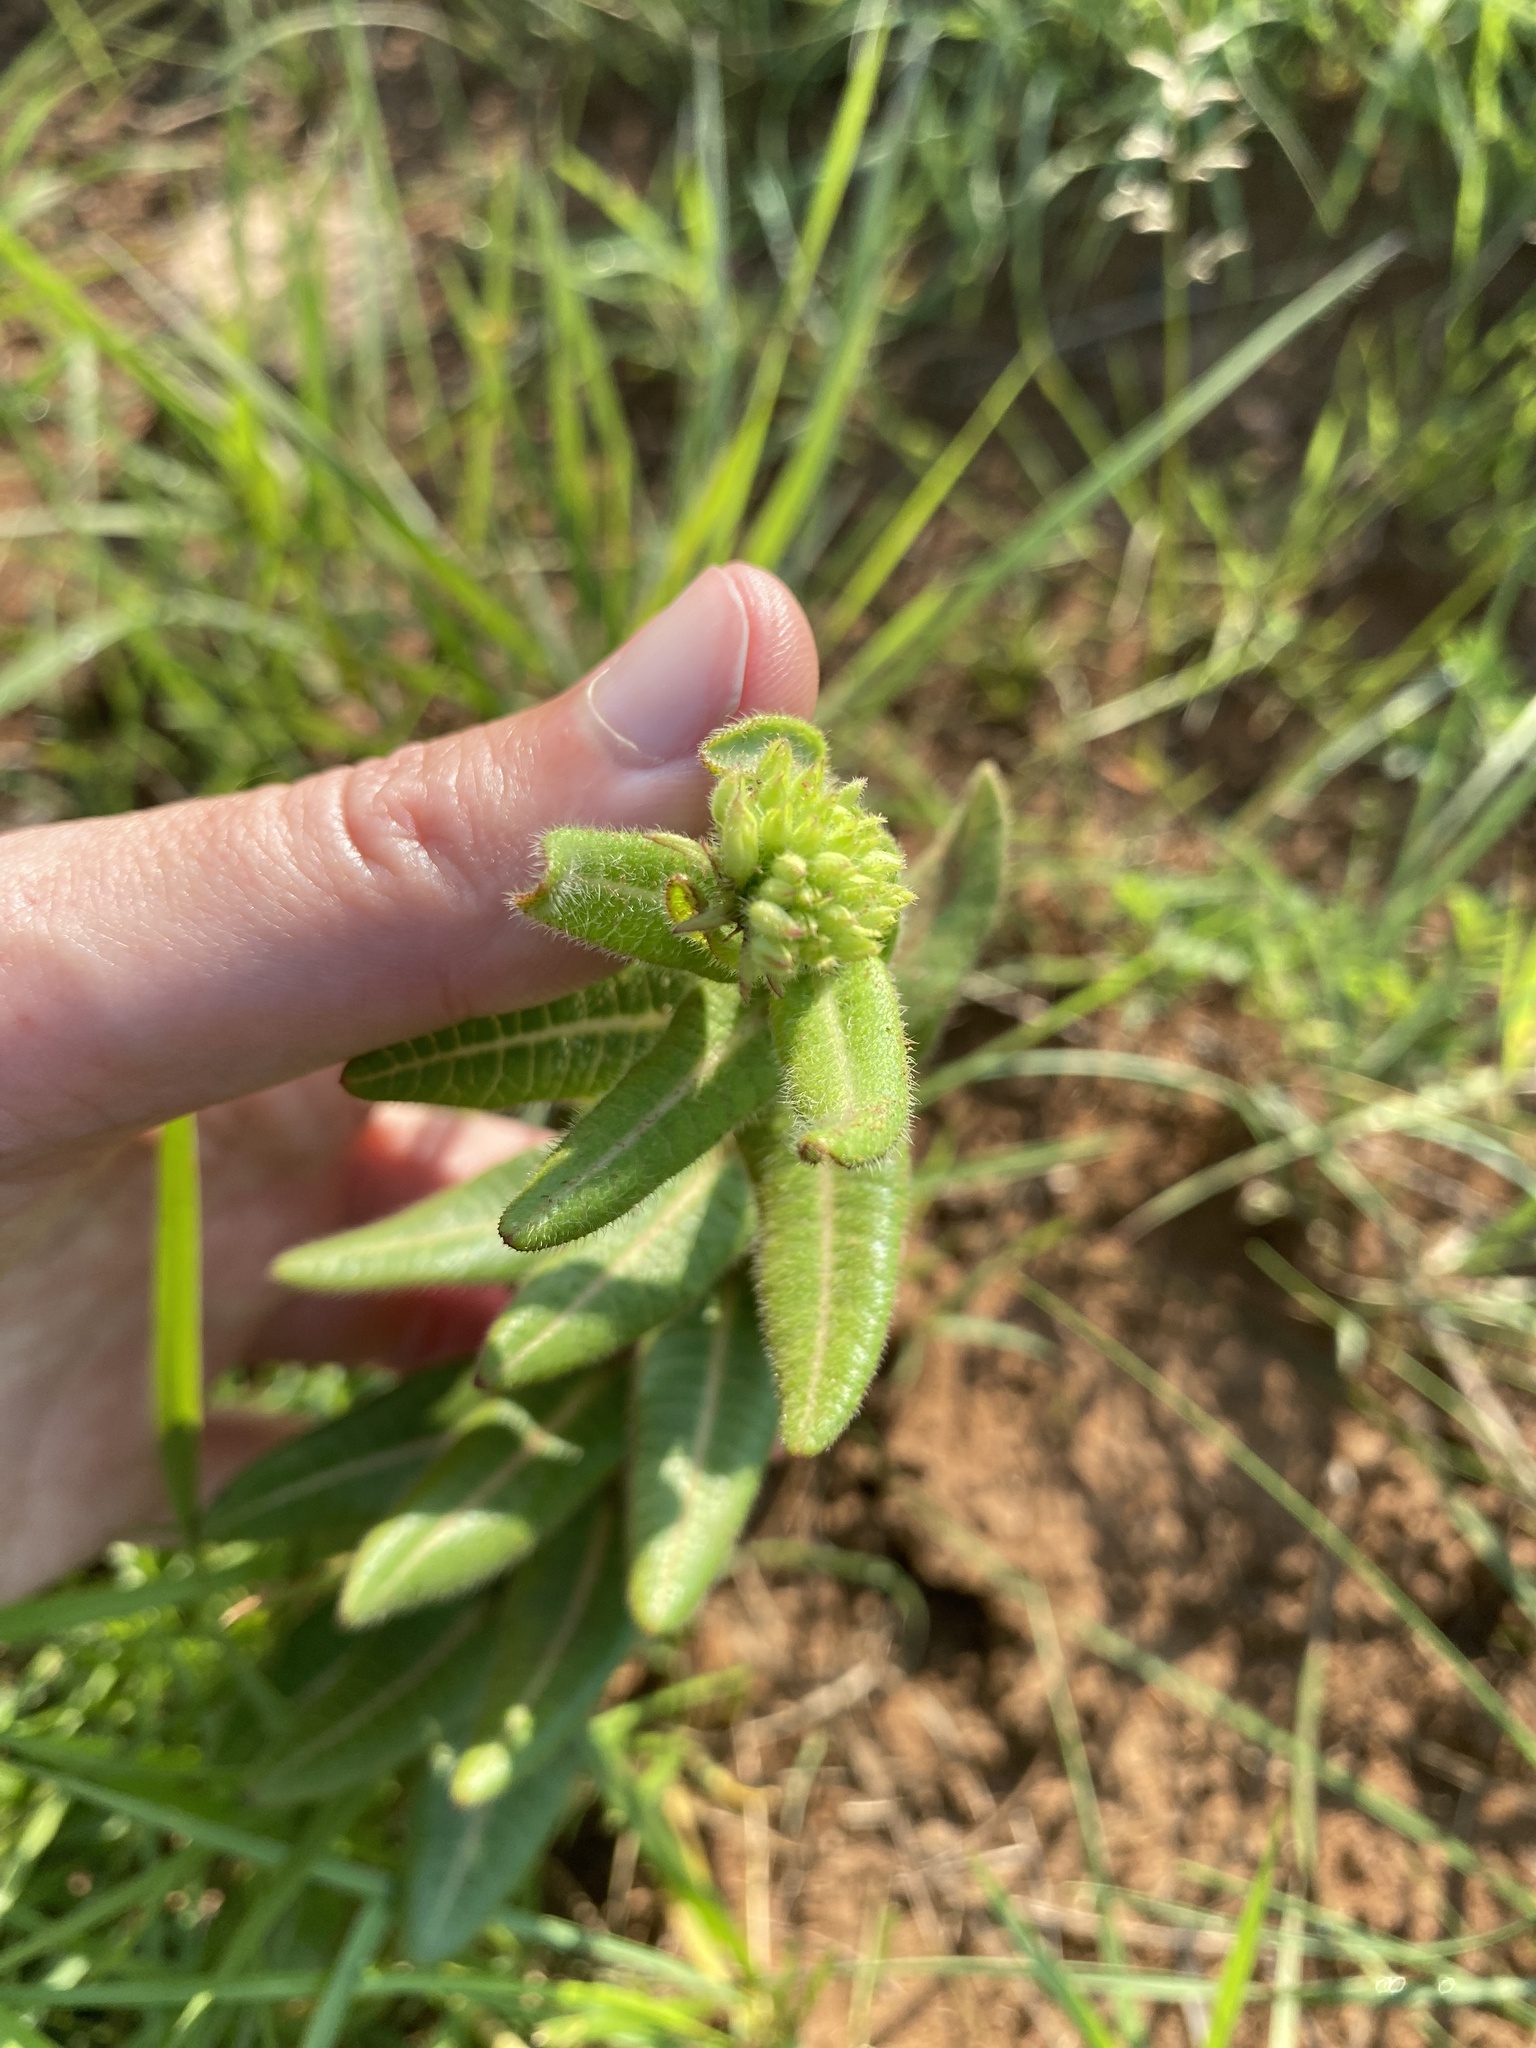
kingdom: Plantae
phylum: Tracheophyta
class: Magnoliopsida
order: Gentianales
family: Apocynaceae
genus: Asclepias
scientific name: Asclepias albens
